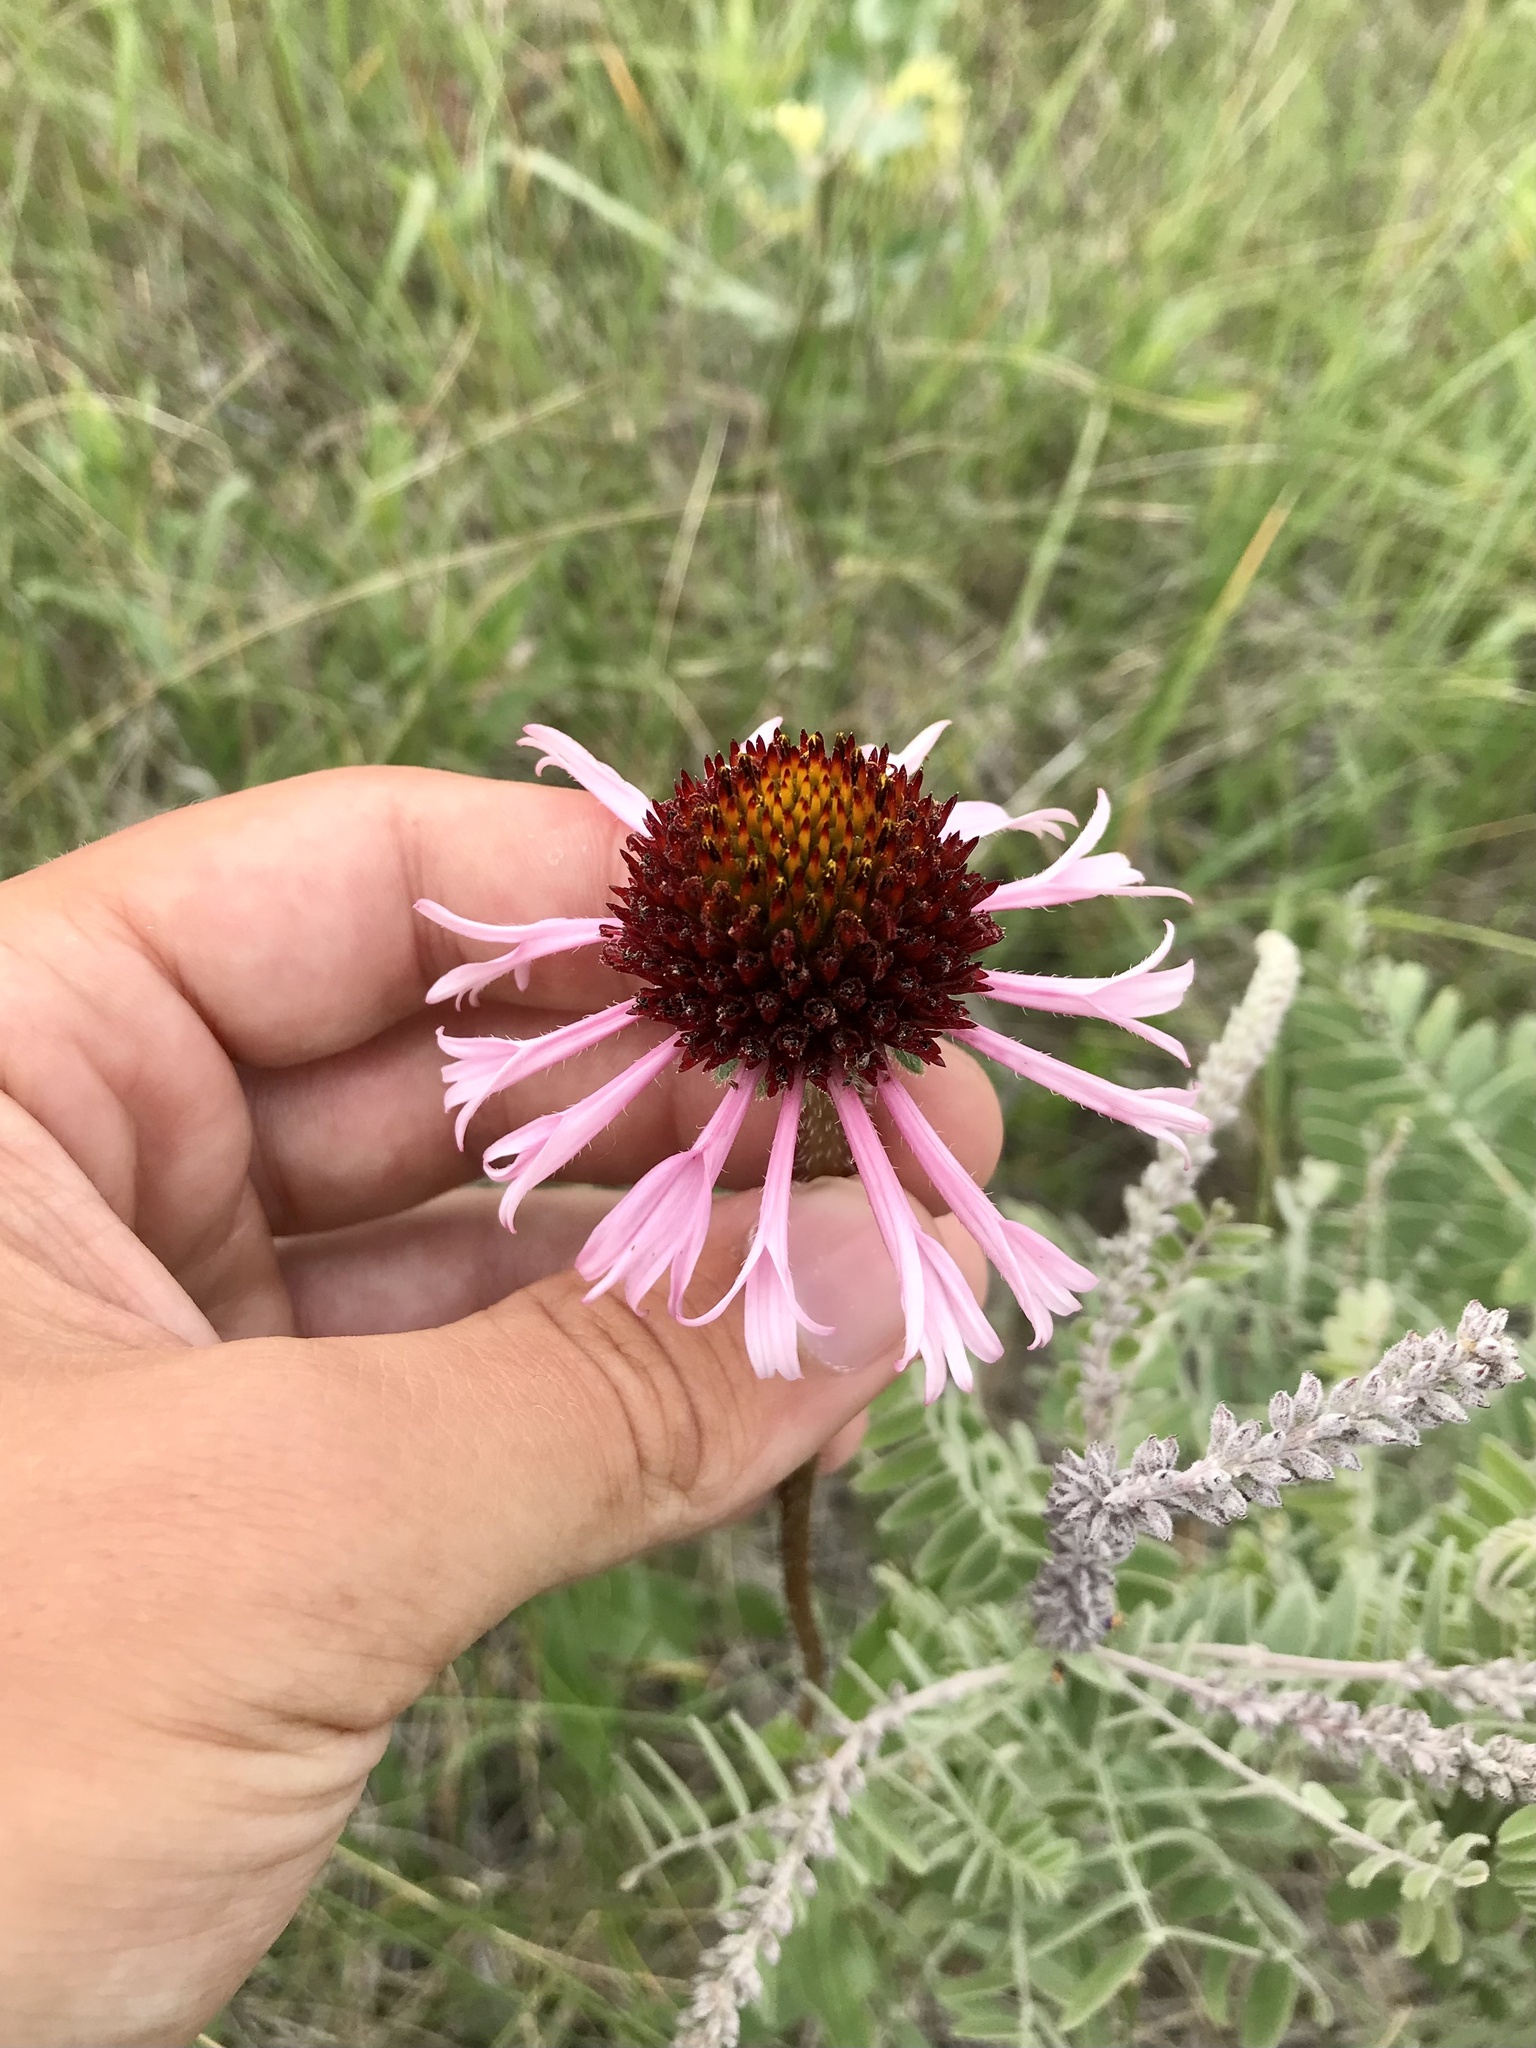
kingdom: Plantae
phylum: Tracheophyta
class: Magnoliopsida
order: Asterales
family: Asteraceae
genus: Echinacea
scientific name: Echinacea angustifolia
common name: Black-sampson echinacea
